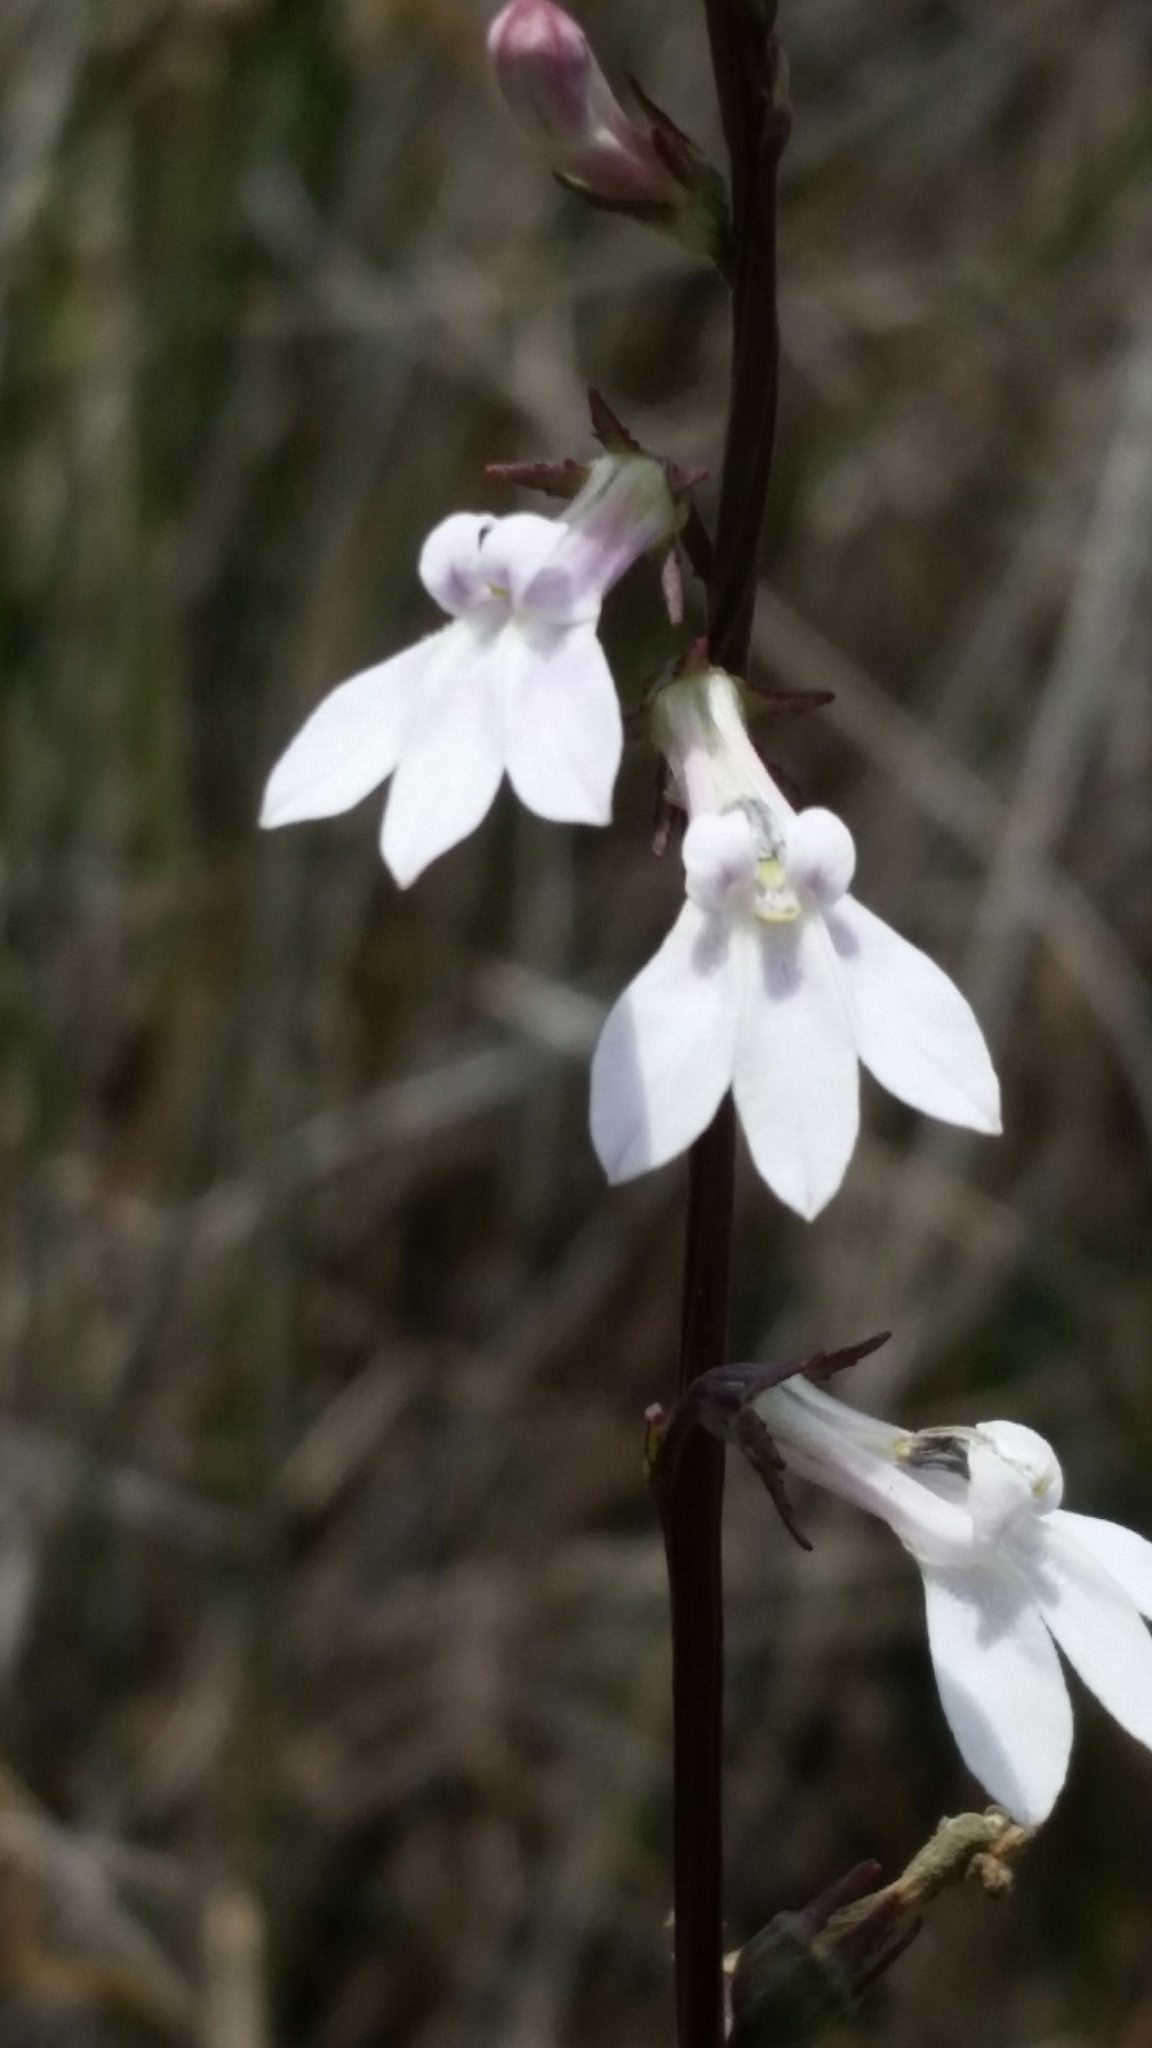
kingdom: Plantae
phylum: Tracheophyta
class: Magnoliopsida
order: Asterales
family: Campanulaceae
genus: Lobelia
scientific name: Lobelia paludosa
